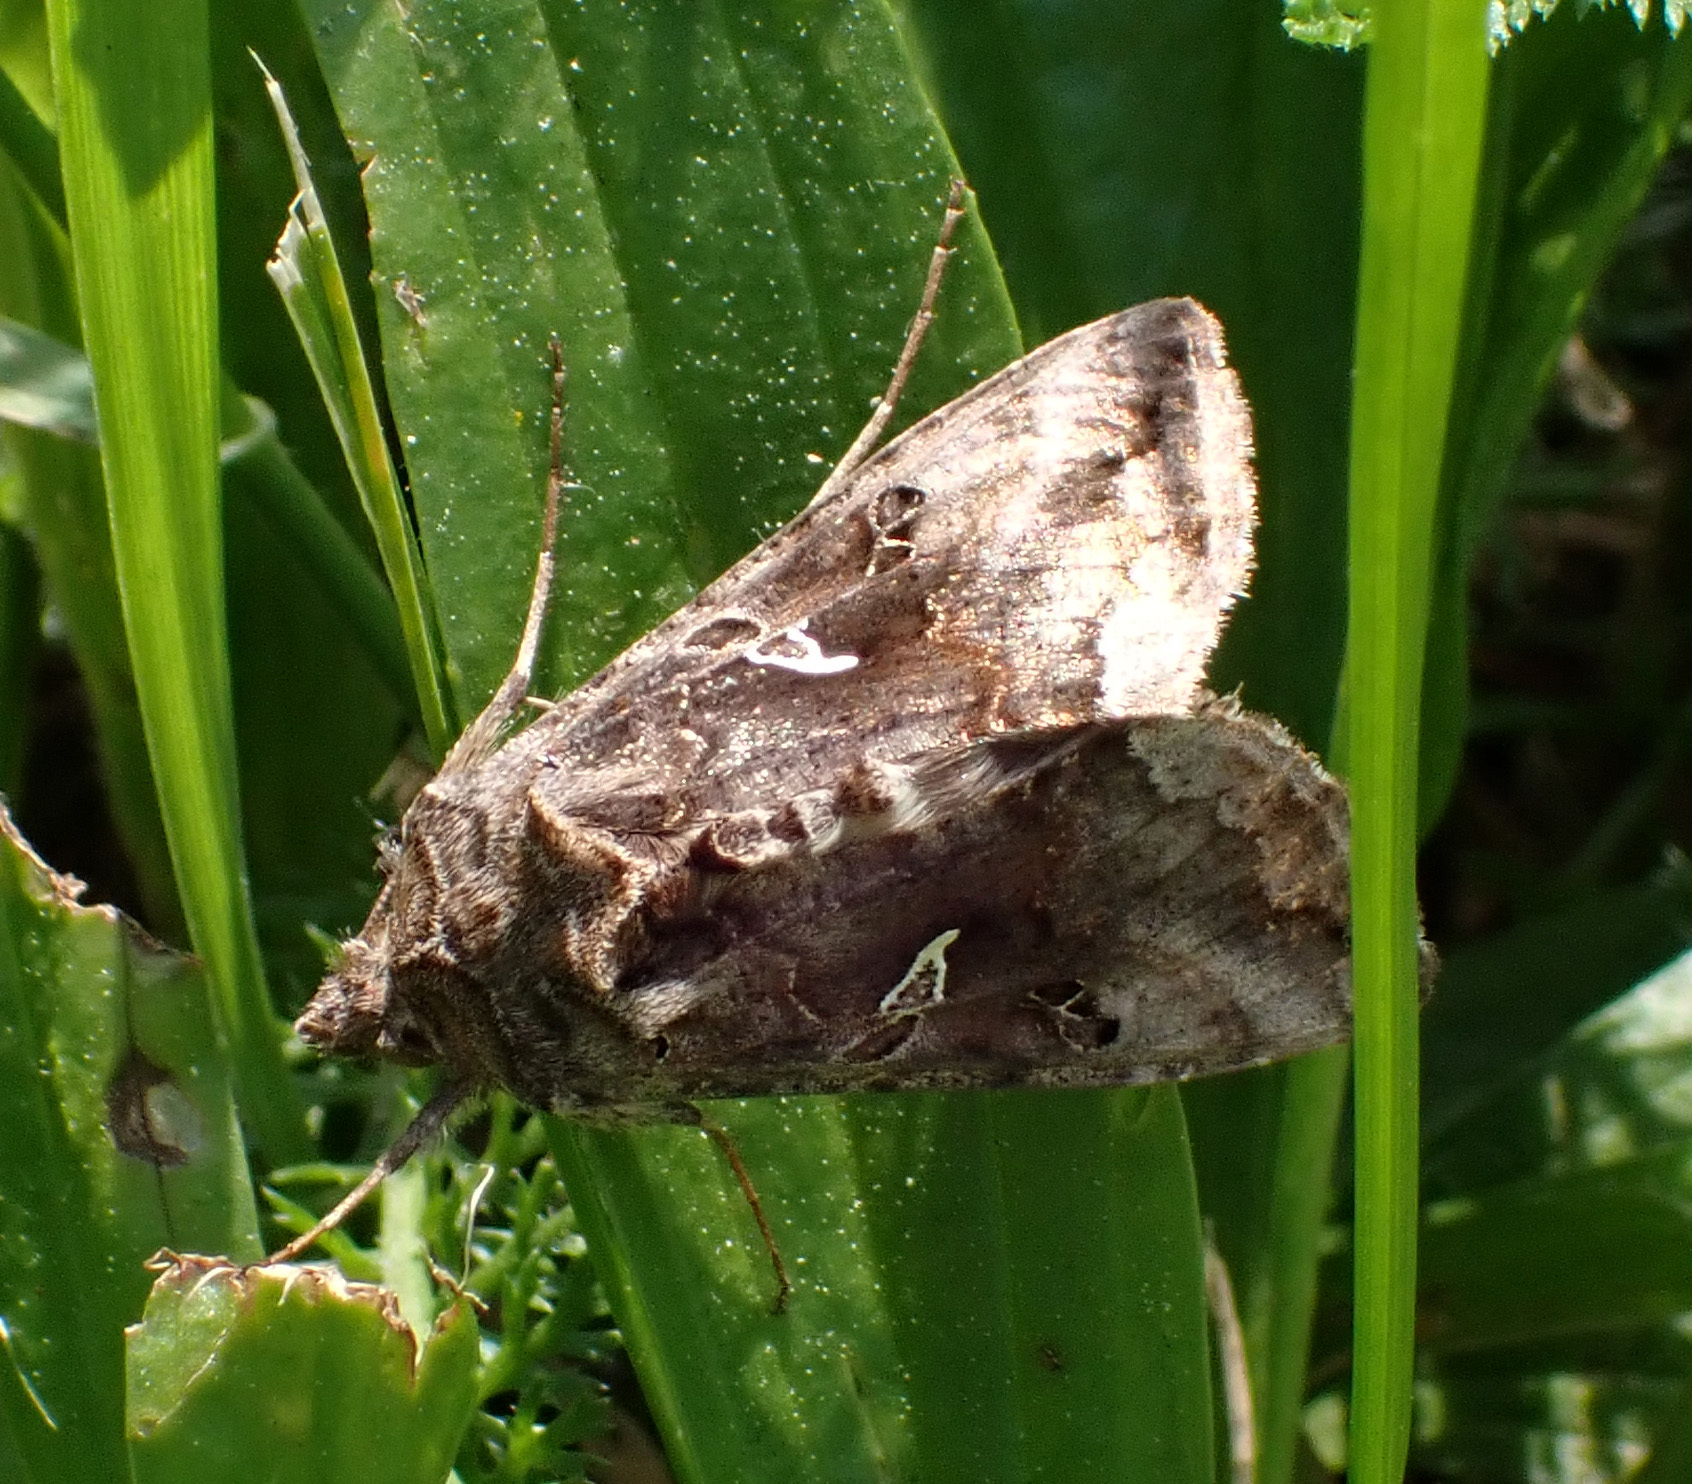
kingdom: Animalia
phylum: Arthropoda
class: Insecta
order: Lepidoptera
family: Noctuidae
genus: Autographa
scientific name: Autographa gamma
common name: Silver y
